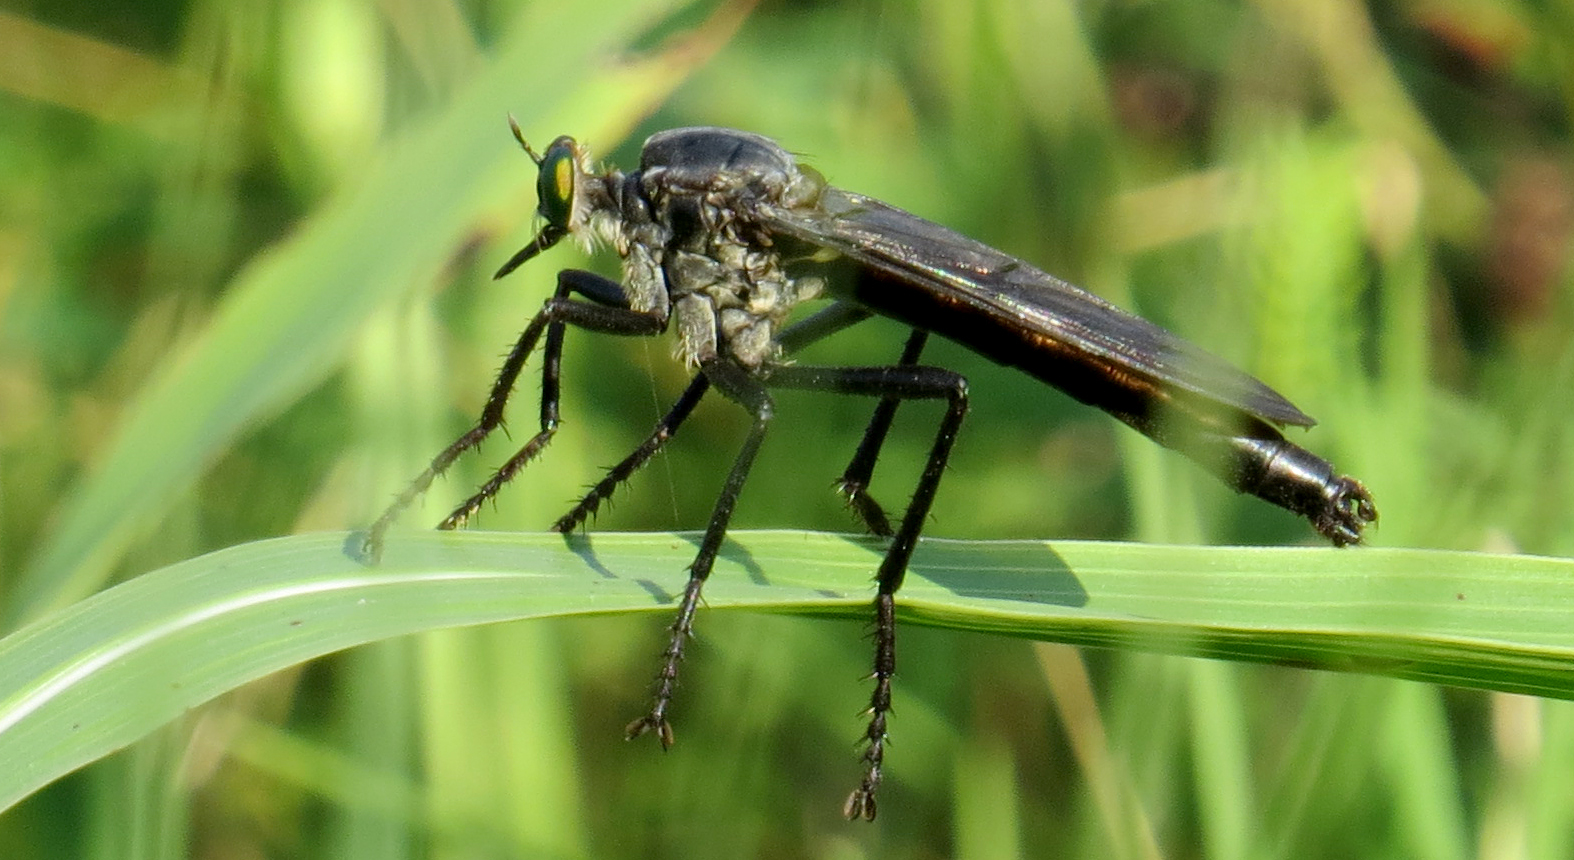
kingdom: Animalia
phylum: Arthropoda
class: Insecta
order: Diptera
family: Asilidae
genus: Microstylum
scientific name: Microstylum morosum
